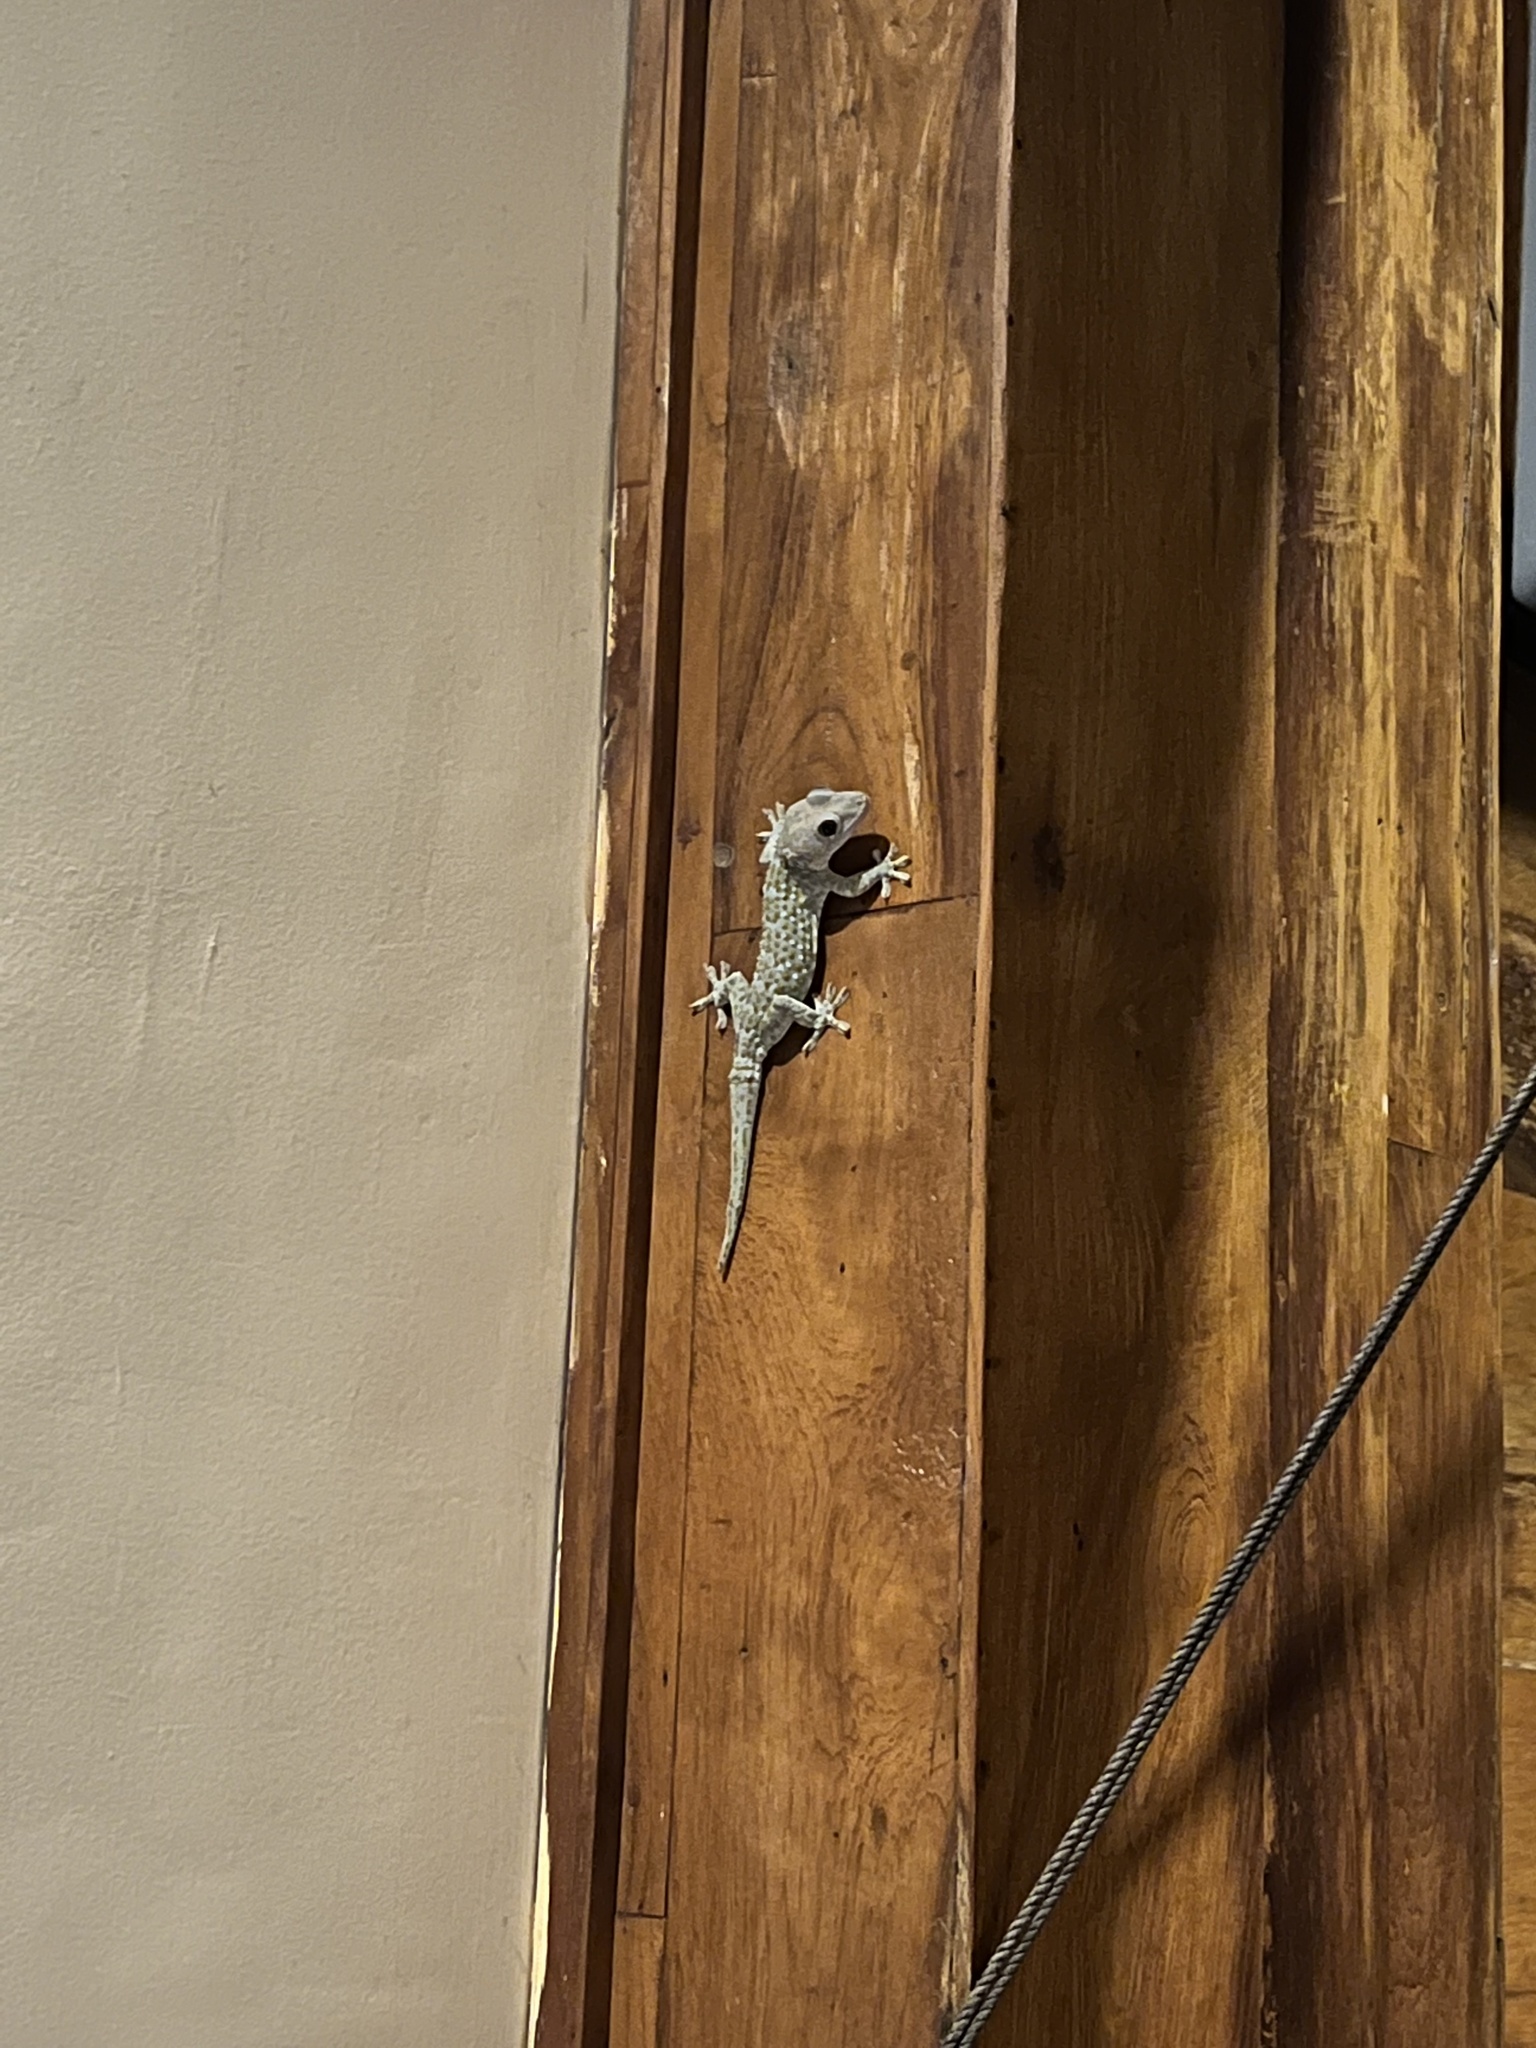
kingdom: Animalia
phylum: Chordata
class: Squamata
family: Gekkonidae
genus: Gekko
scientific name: Gekko gecko
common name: Tokay gecko
